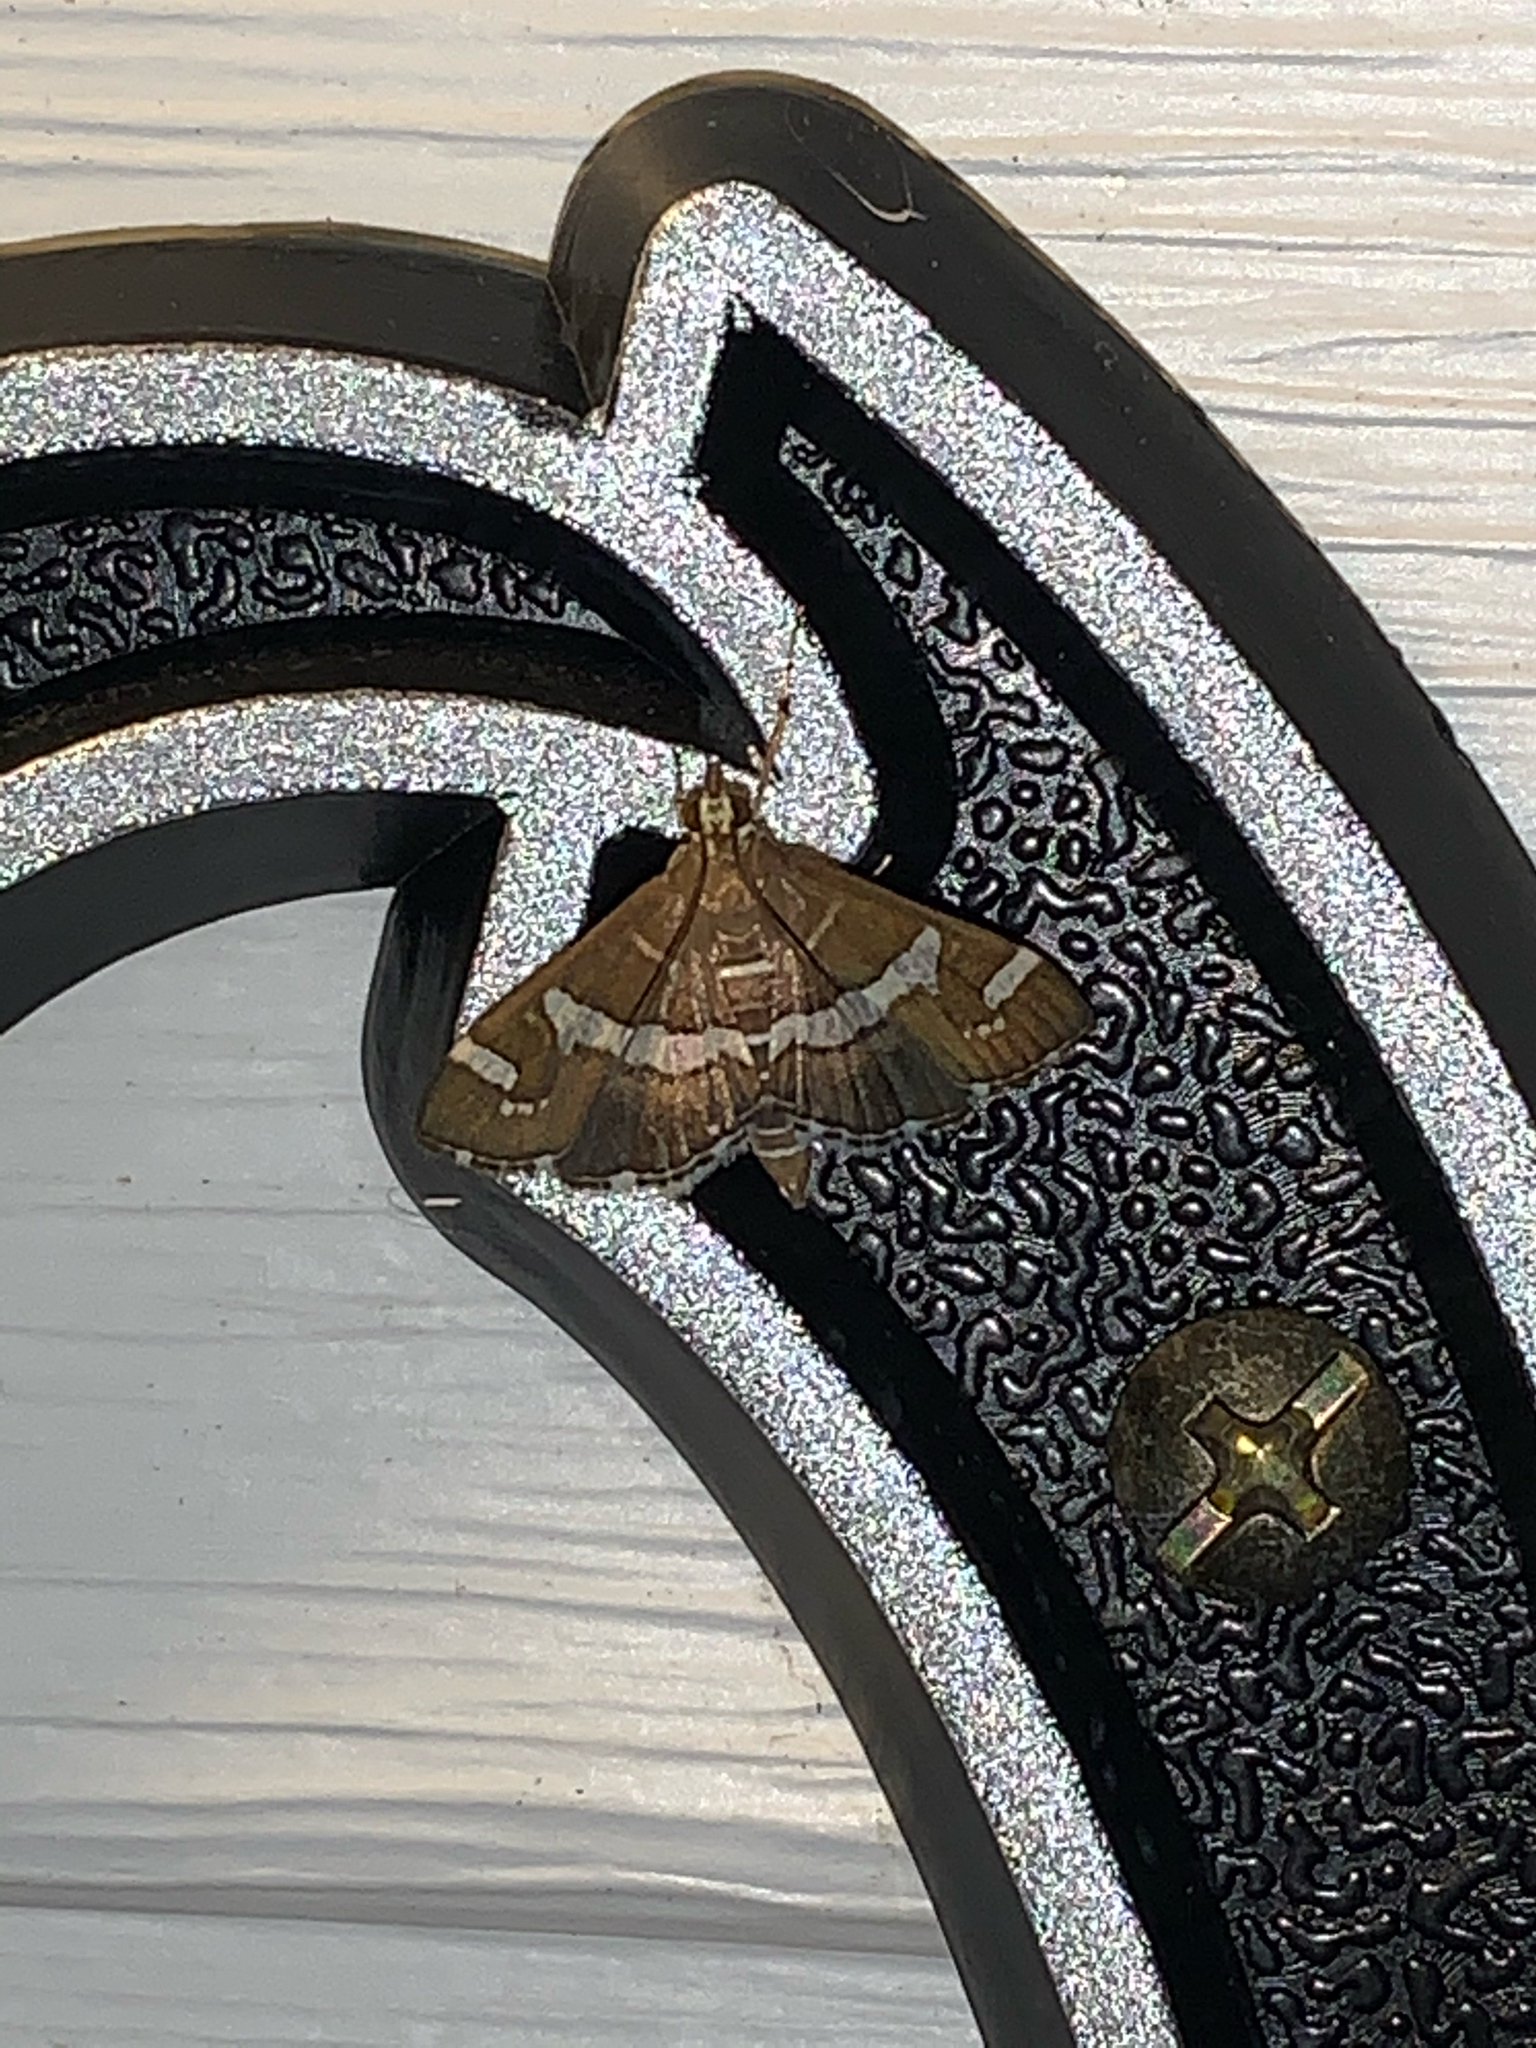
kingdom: Animalia
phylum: Arthropoda
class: Insecta
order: Lepidoptera
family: Crambidae
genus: Spoladea
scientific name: Spoladea recurvalis
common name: Beet webworm moth
